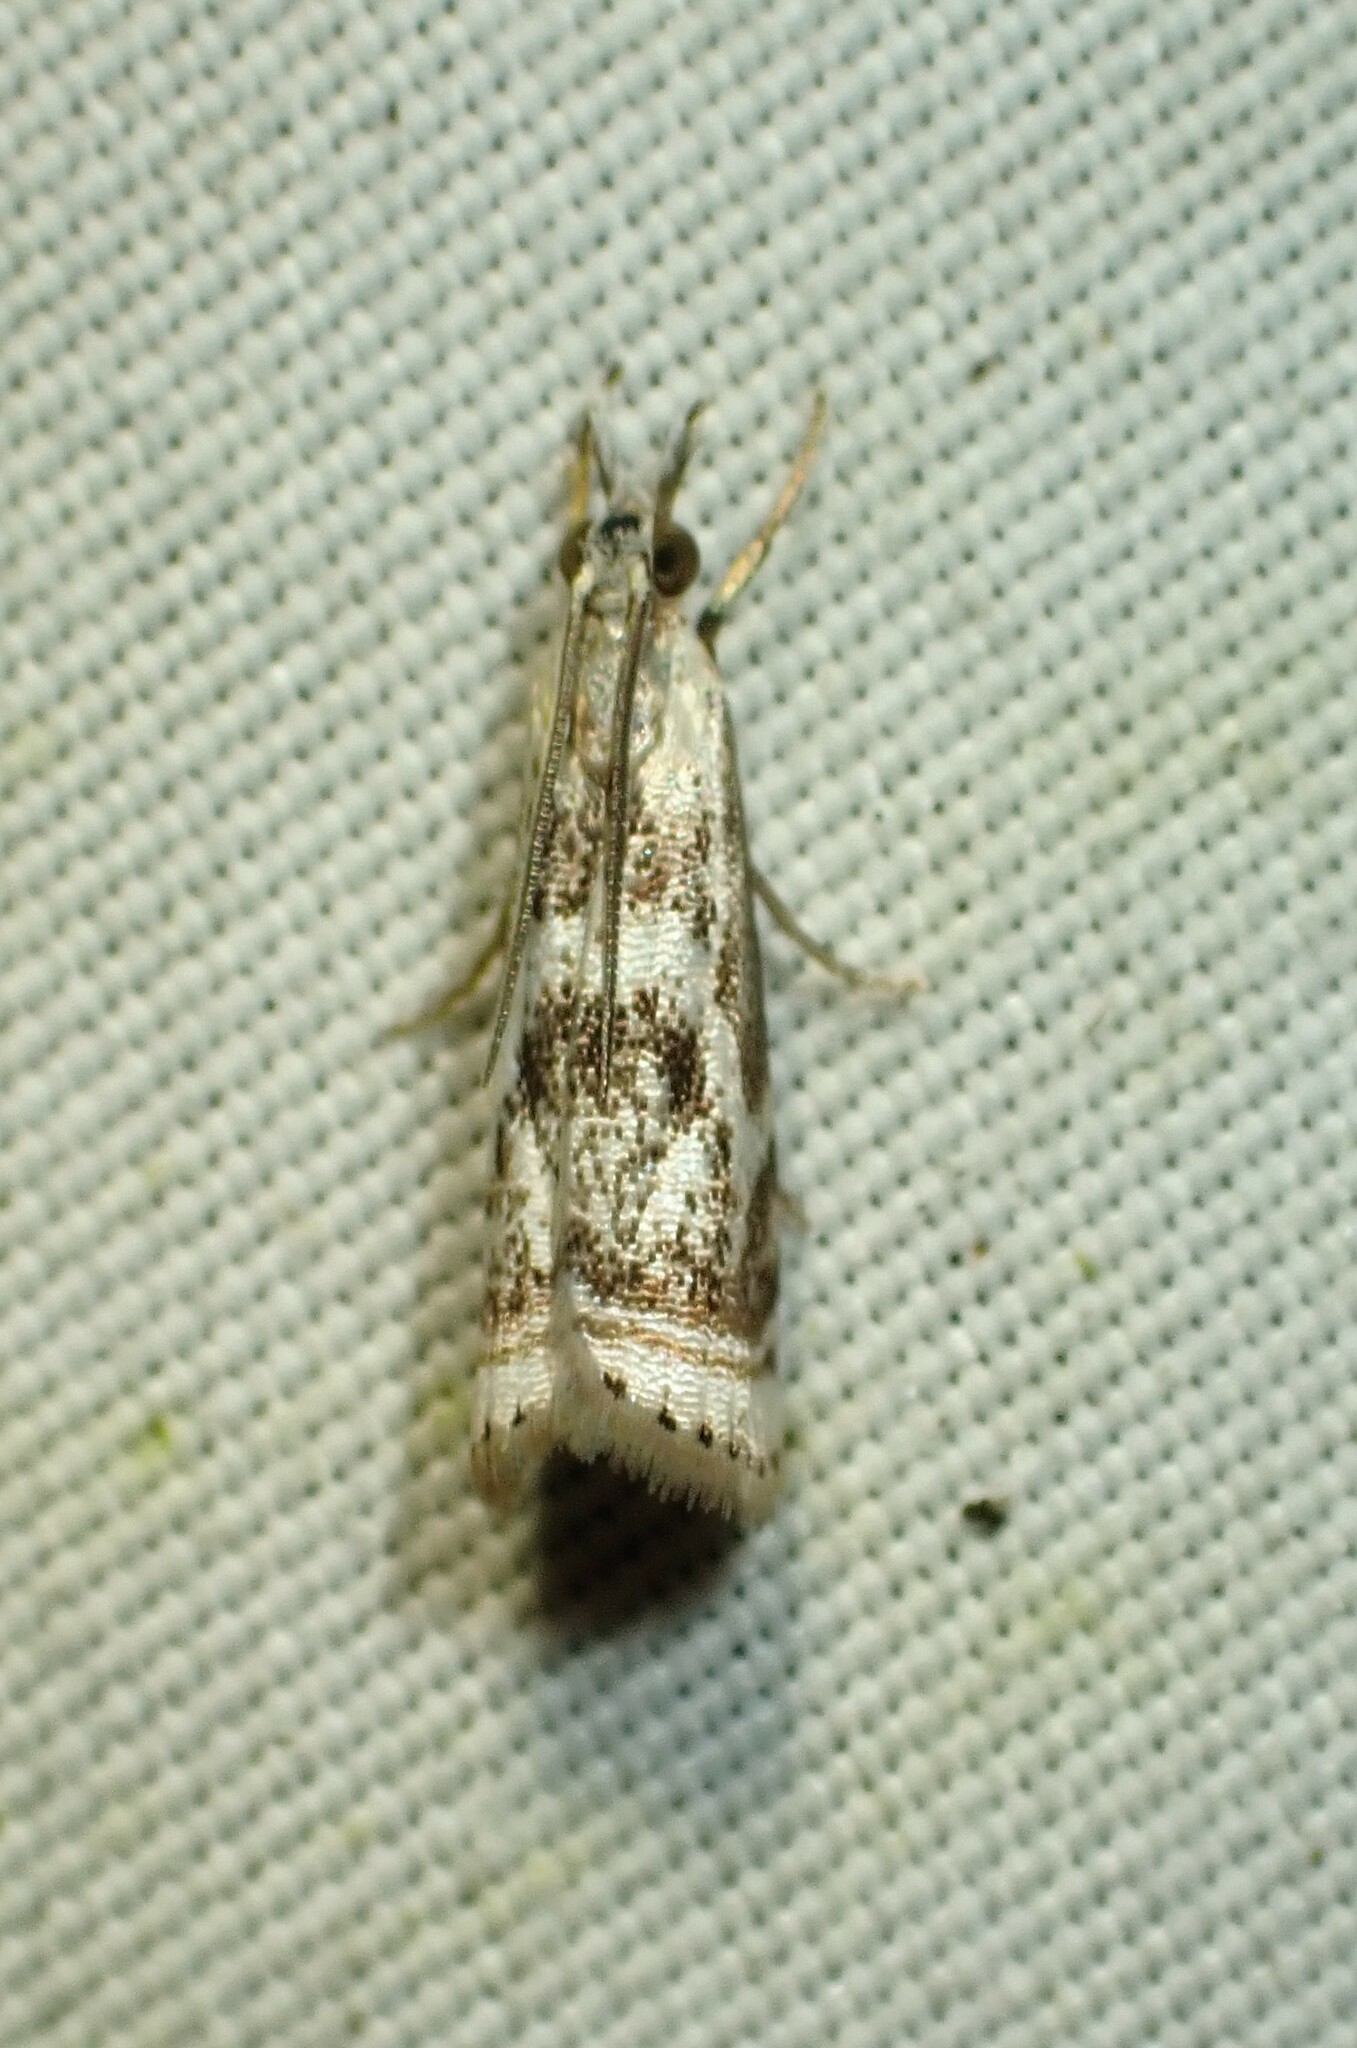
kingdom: Animalia
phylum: Arthropoda
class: Insecta
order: Lepidoptera
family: Crambidae
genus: Microcrambus
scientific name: Microcrambus elegans
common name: Elegant grass-veneer
